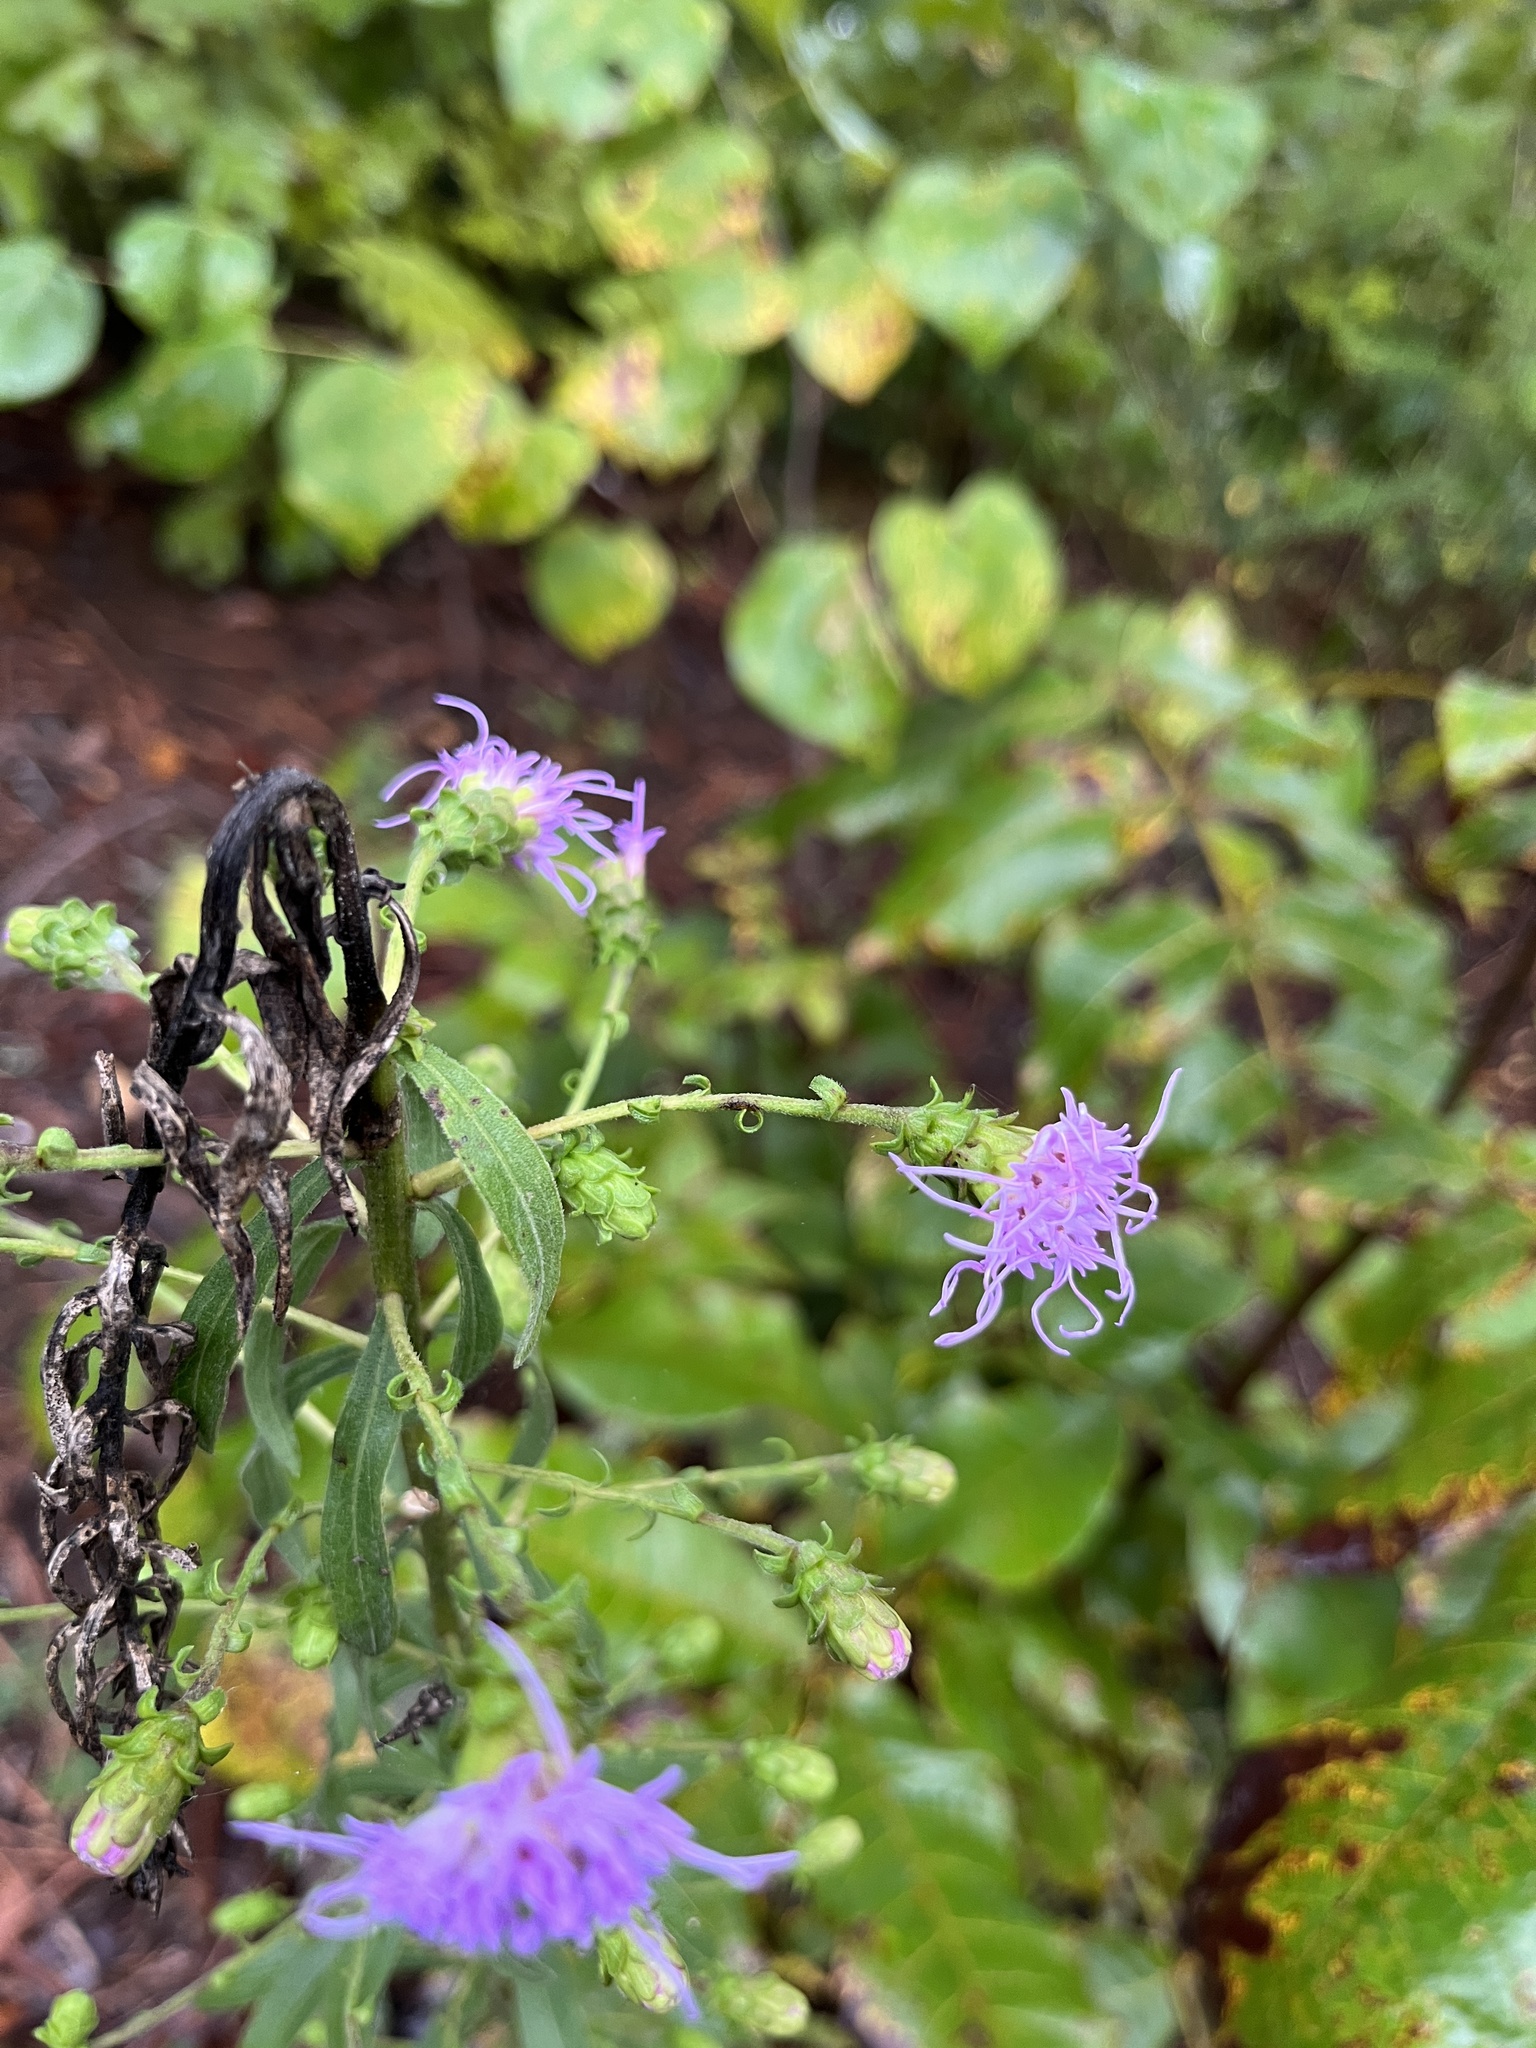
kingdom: Plantae
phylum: Tracheophyta
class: Magnoliopsida
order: Asterales
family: Asteraceae
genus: Liatris
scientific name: Liatris squarrulosa
